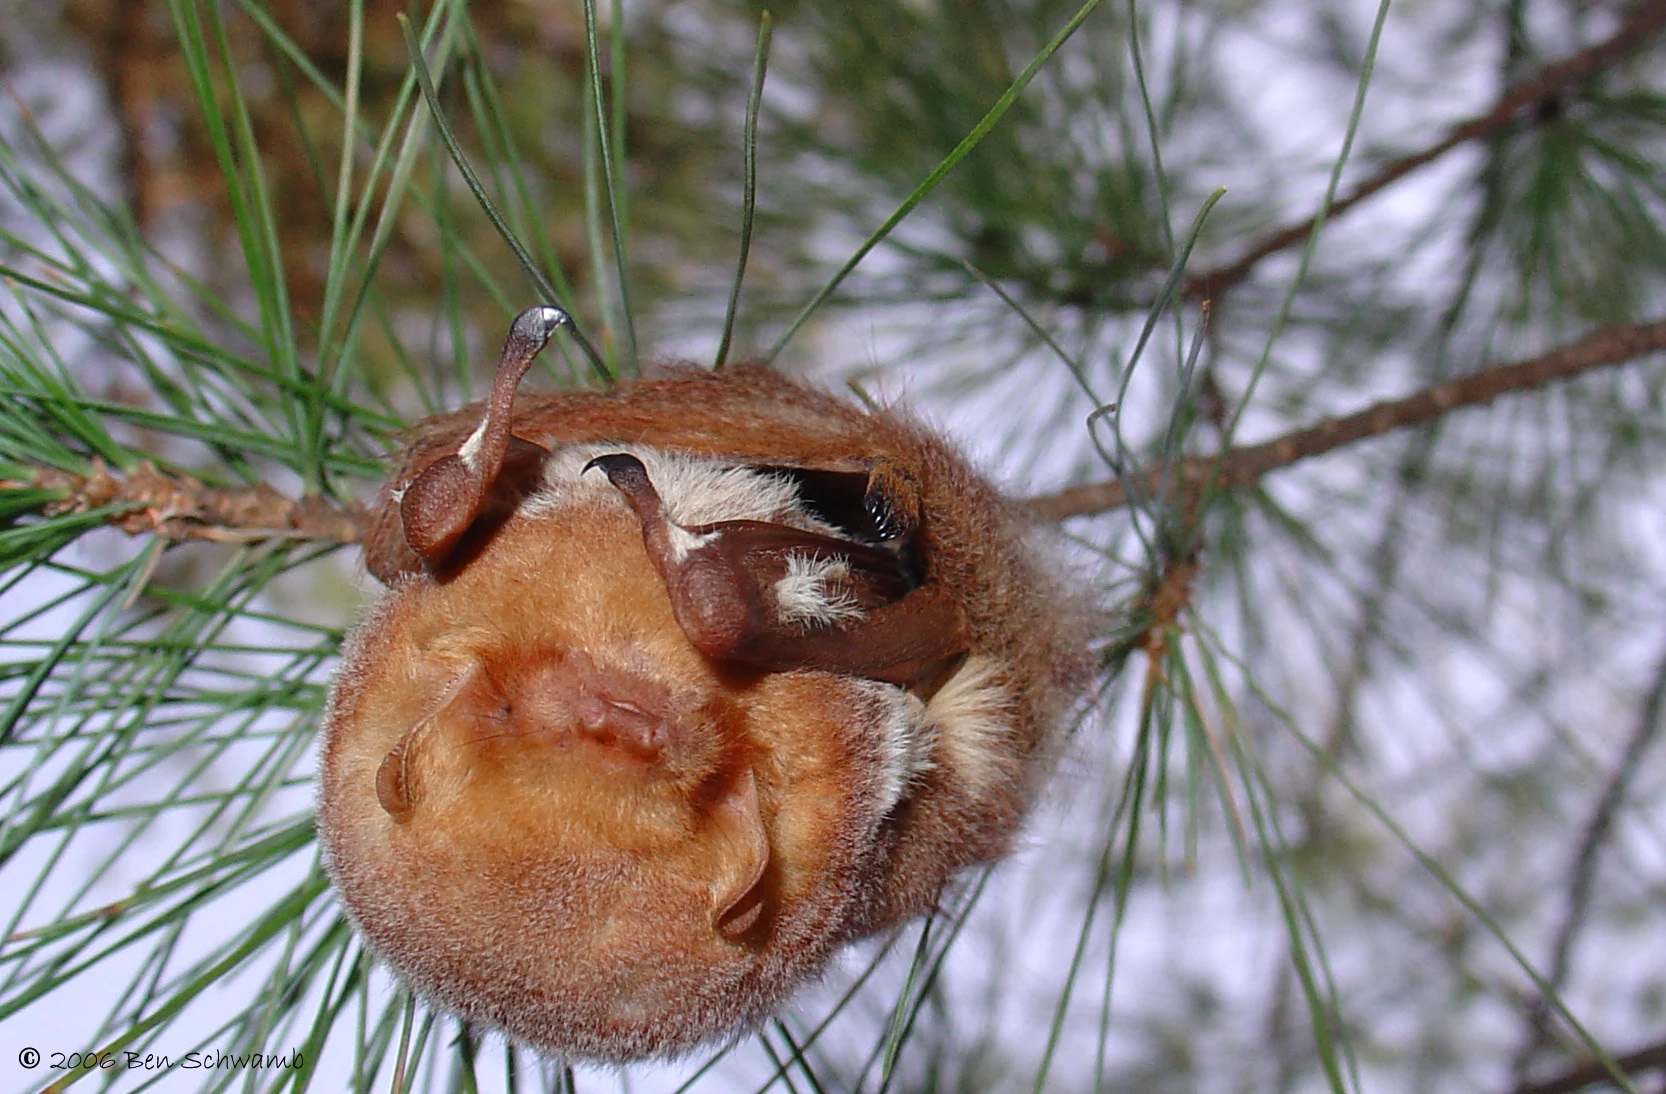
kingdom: Animalia
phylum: Chordata
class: Mammalia
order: Chiroptera
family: Vespertilionidae
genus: Lasiurus
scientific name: Lasiurus borealis
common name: Eastern red bat
